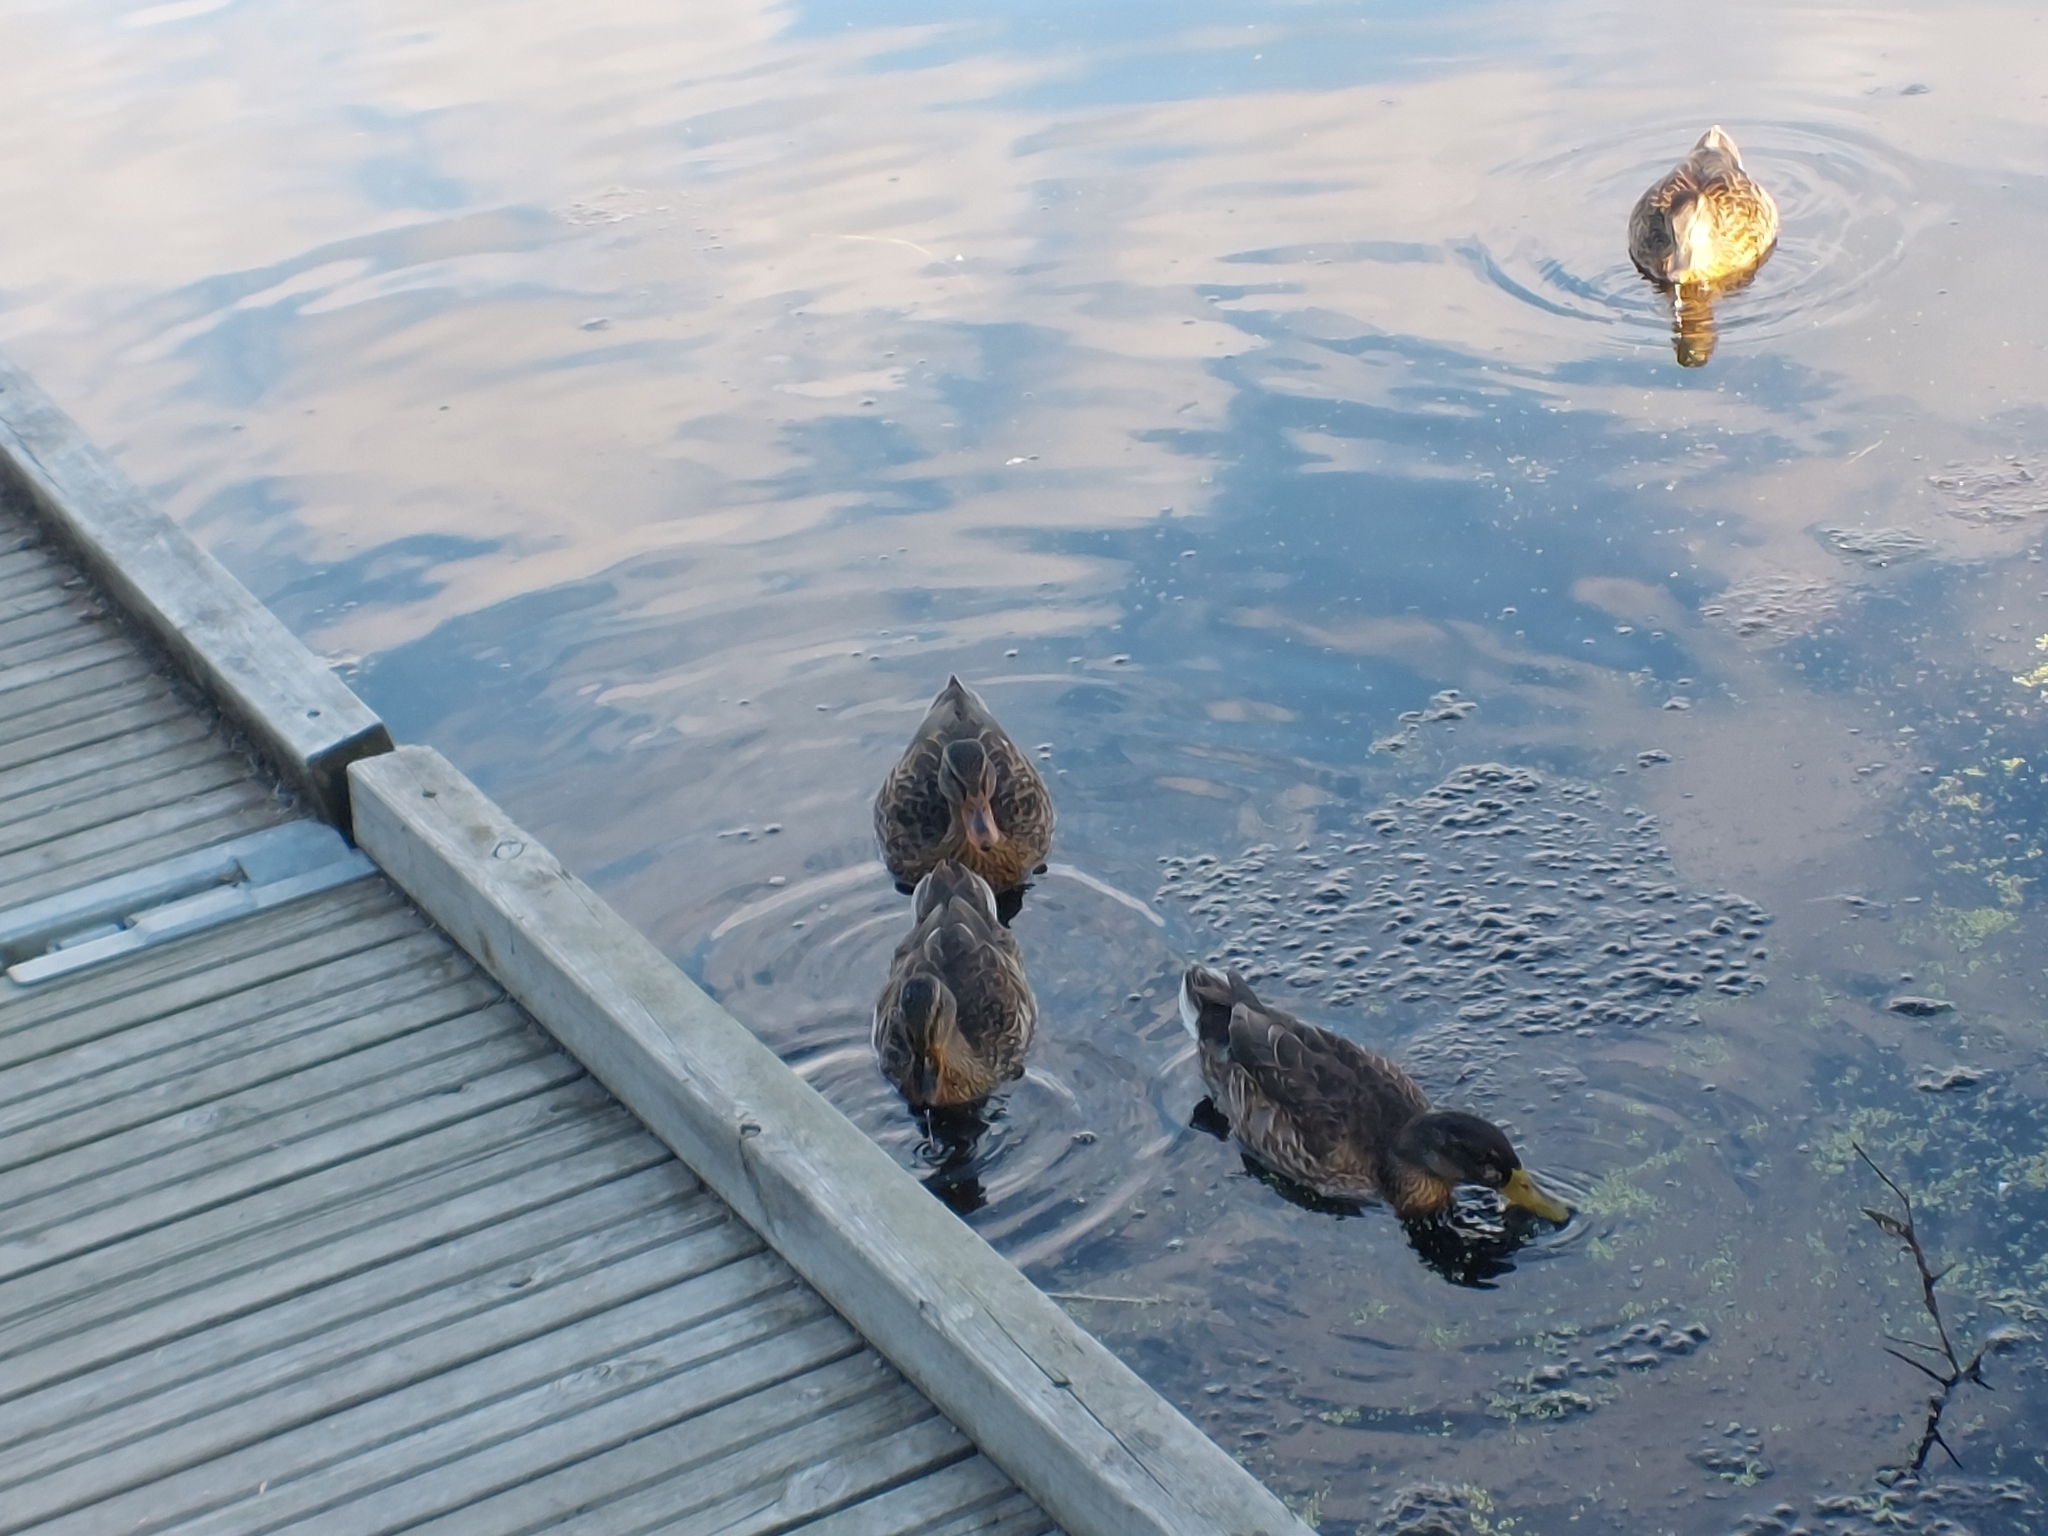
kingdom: Animalia
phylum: Chordata
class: Aves
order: Anseriformes
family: Anatidae
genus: Anas
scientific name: Anas platyrhynchos
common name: Mallard
